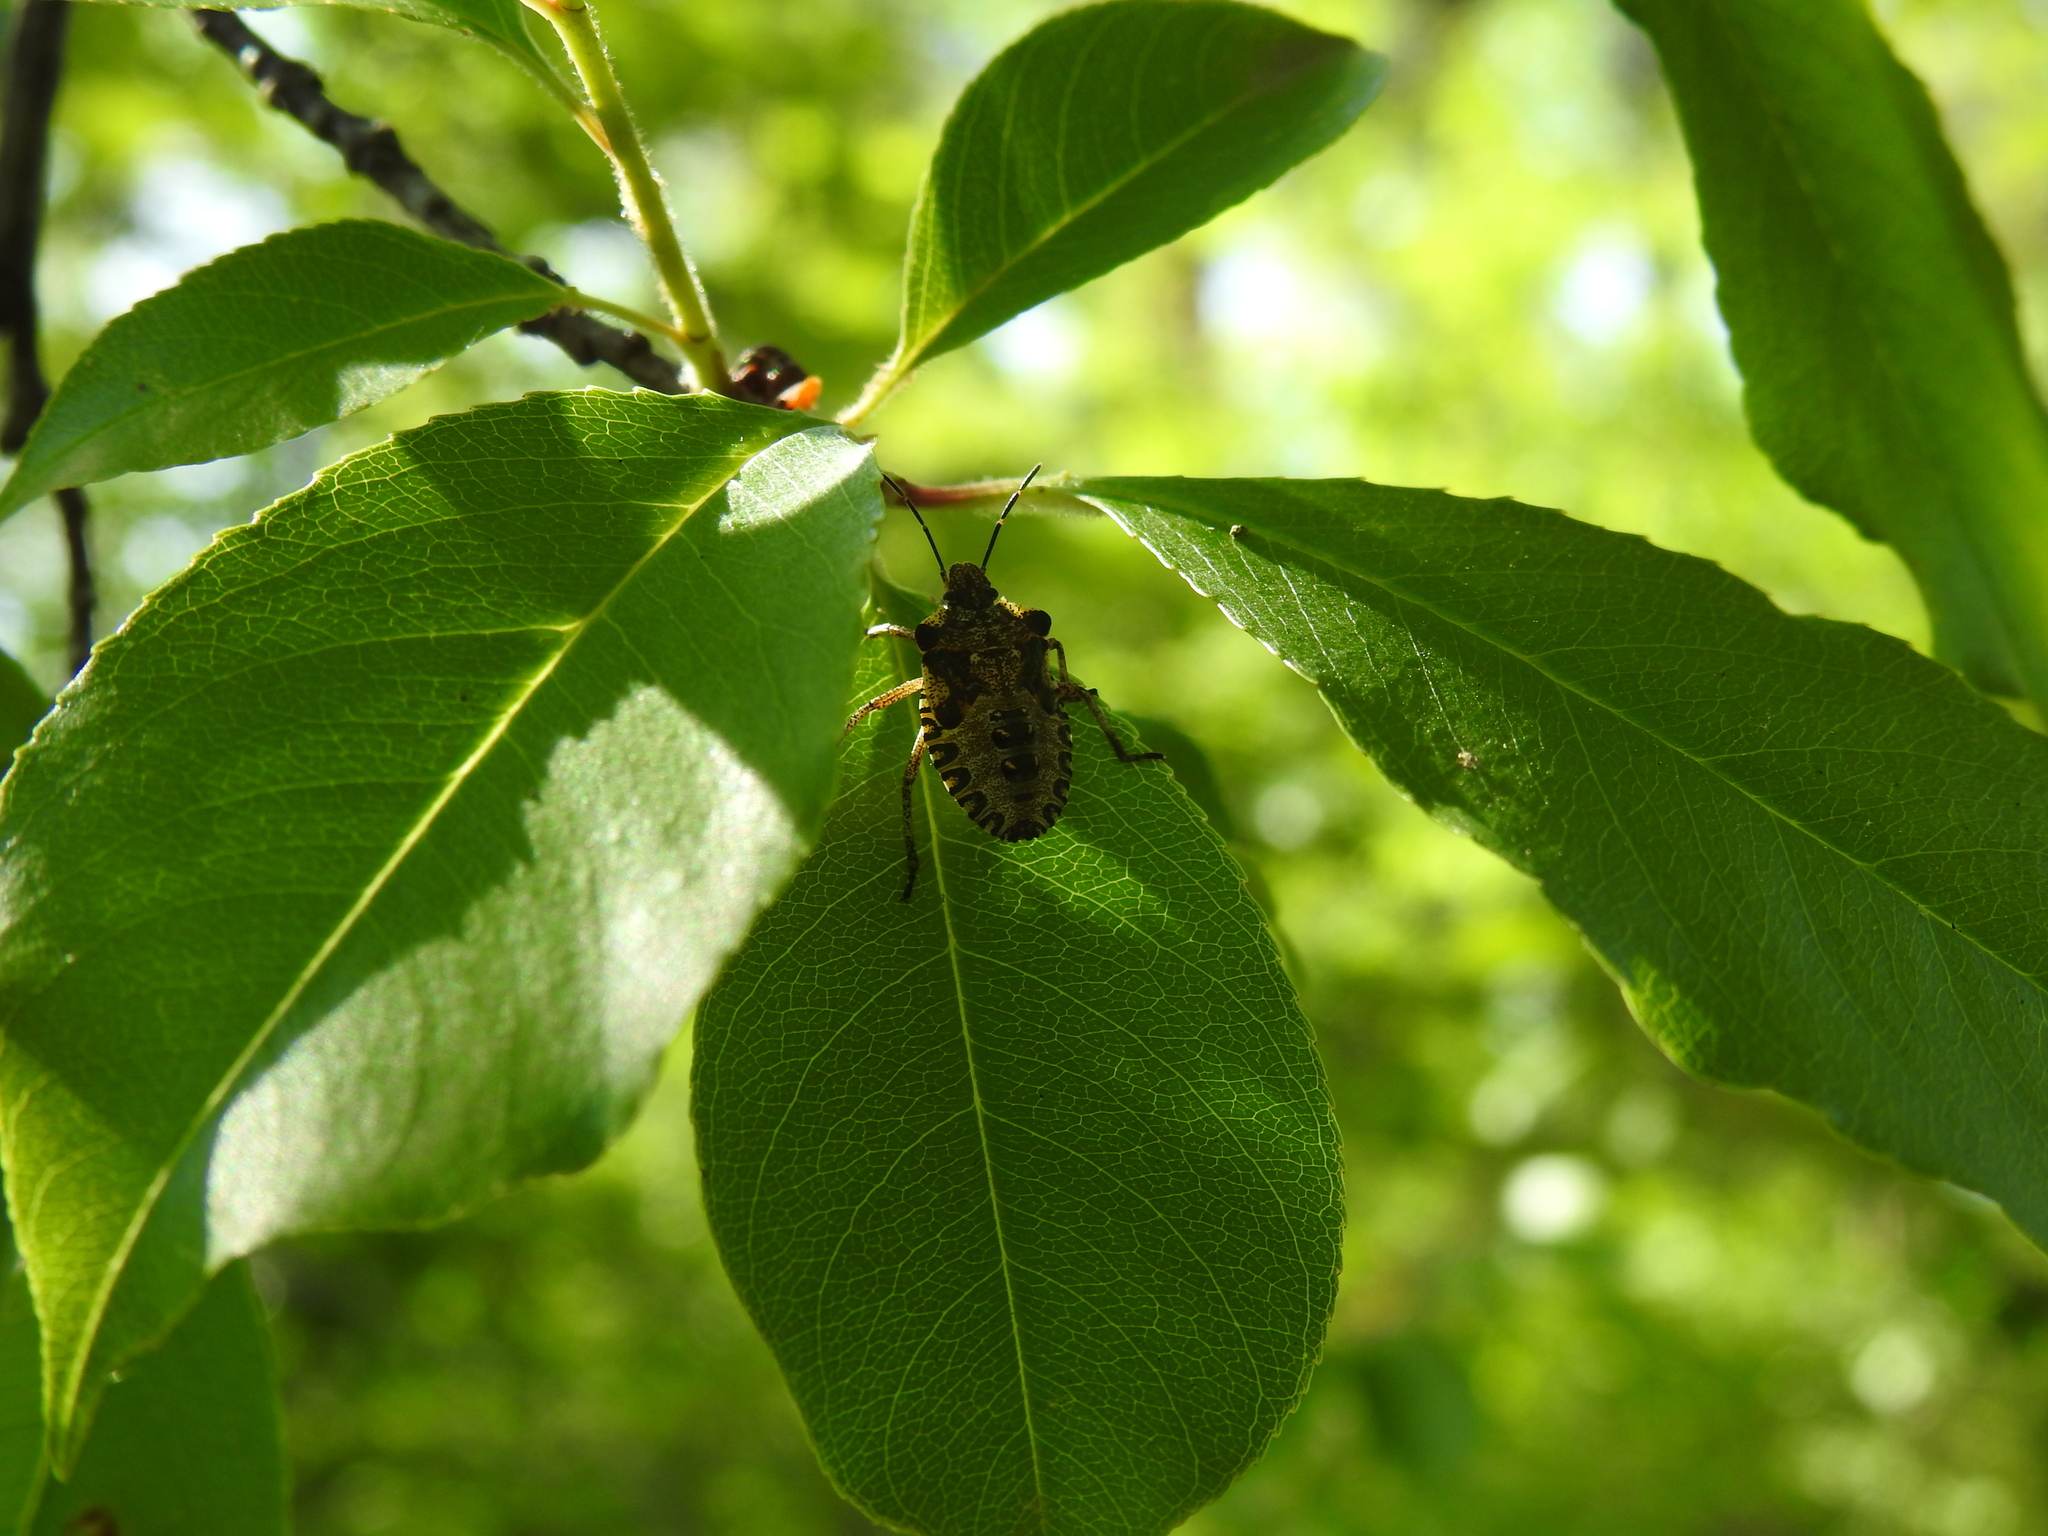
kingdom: Animalia
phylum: Arthropoda
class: Insecta
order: Hemiptera
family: Pentatomidae
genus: Pentatoma
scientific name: Pentatoma rufipes
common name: Forest bug
